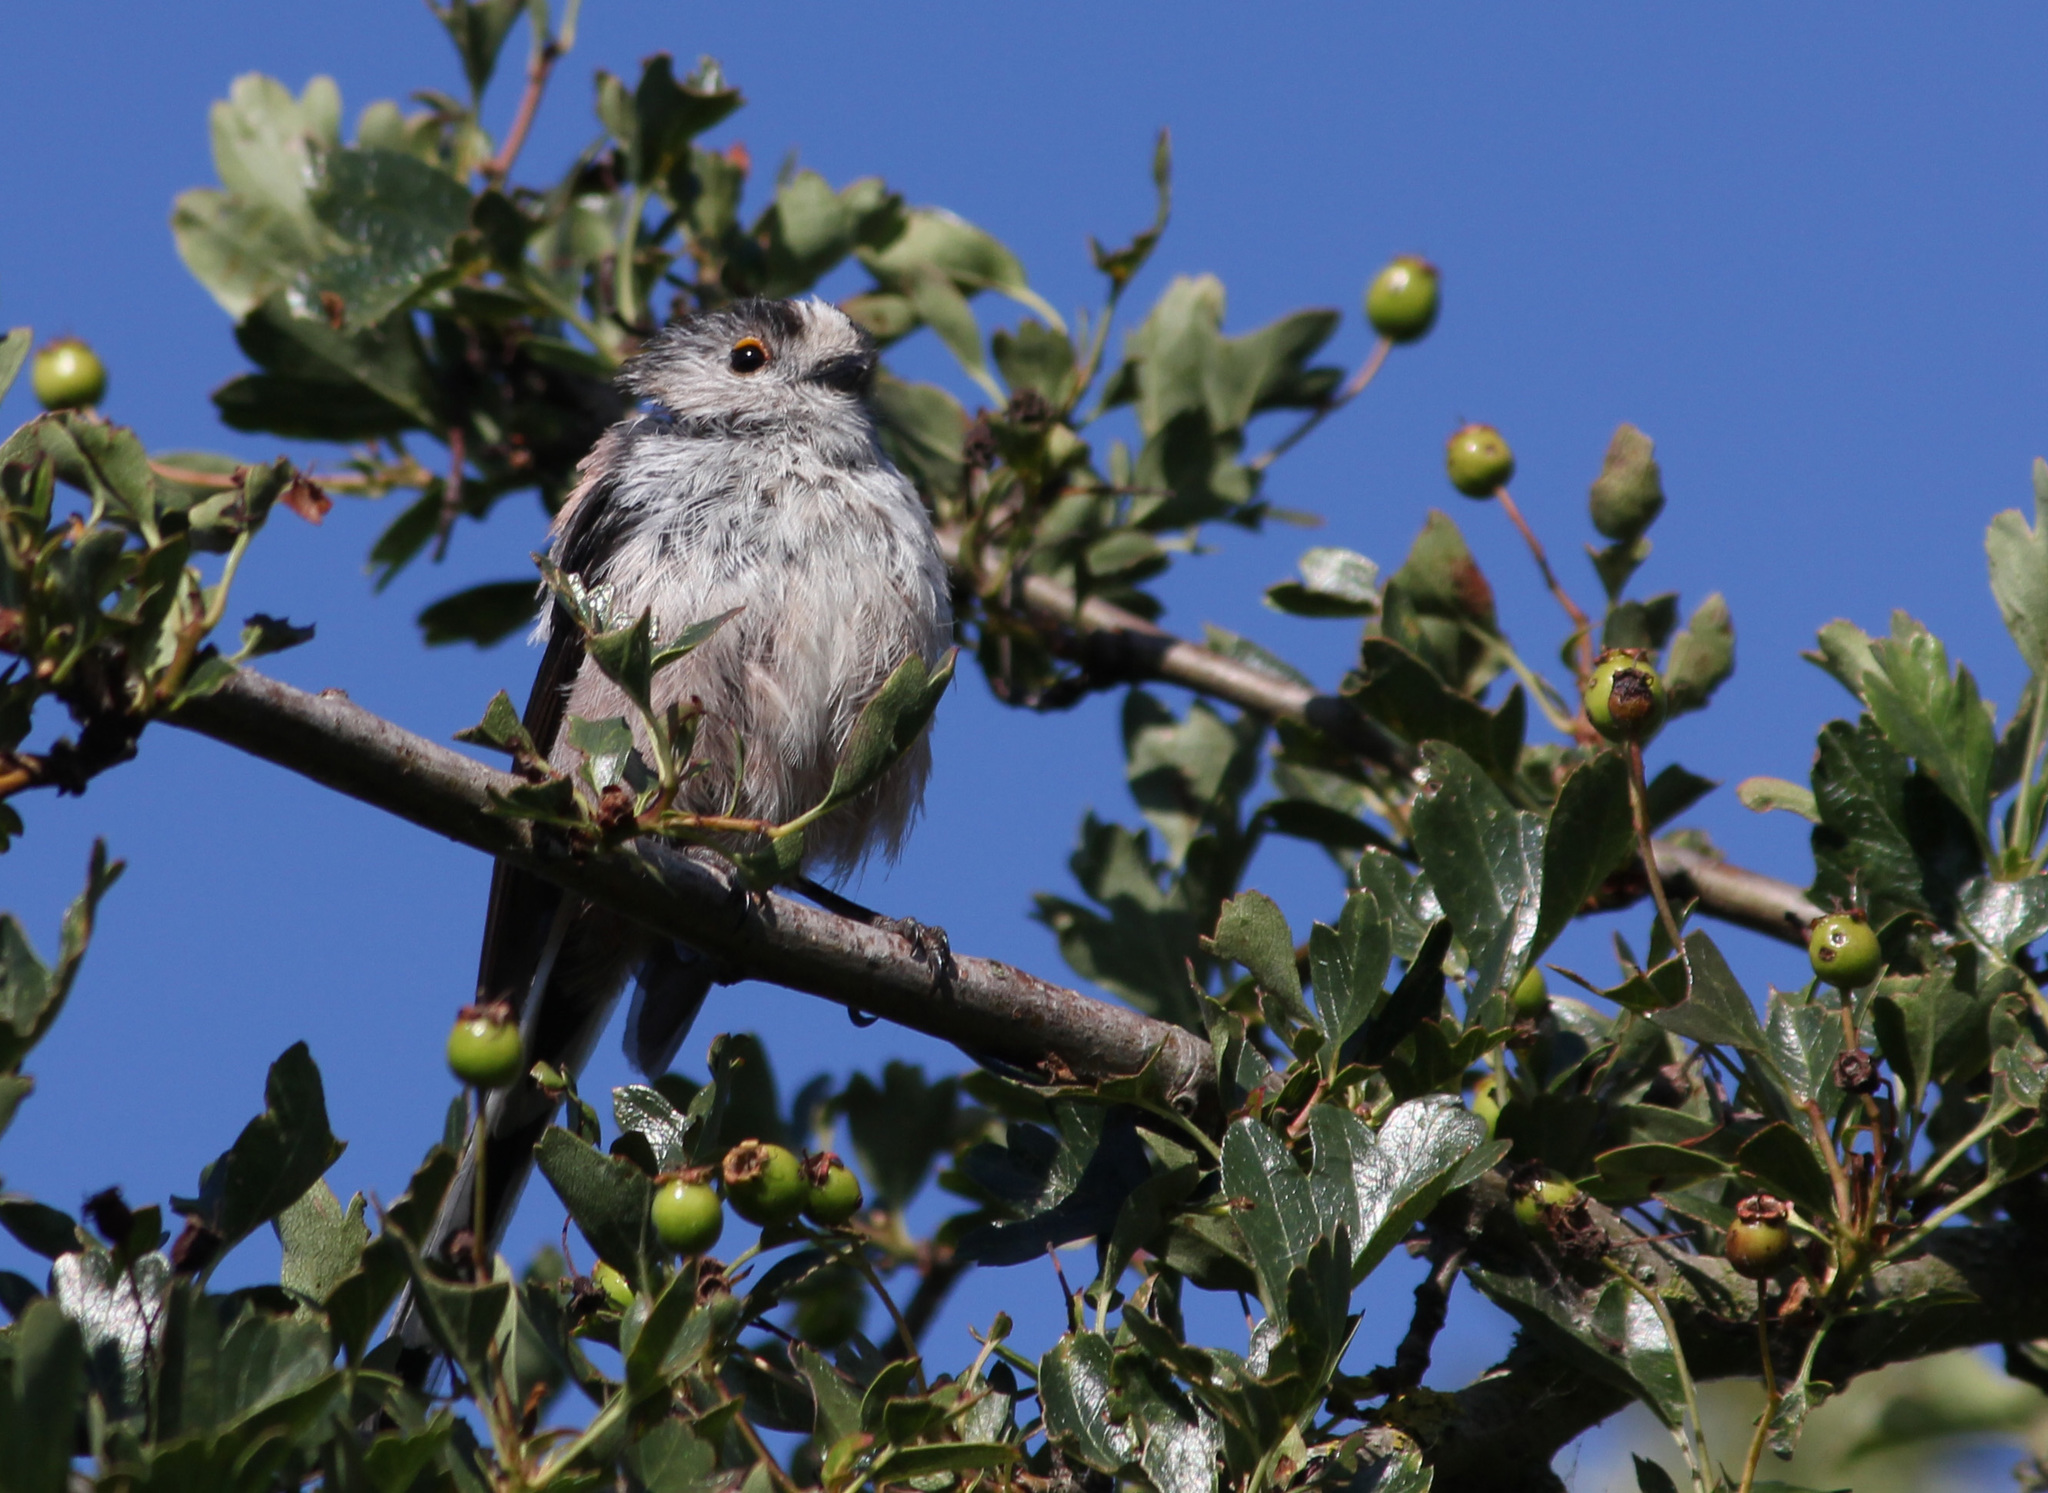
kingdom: Animalia
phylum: Chordata
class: Aves
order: Passeriformes
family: Aegithalidae
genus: Aegithalos
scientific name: Aegithalos caudatus
